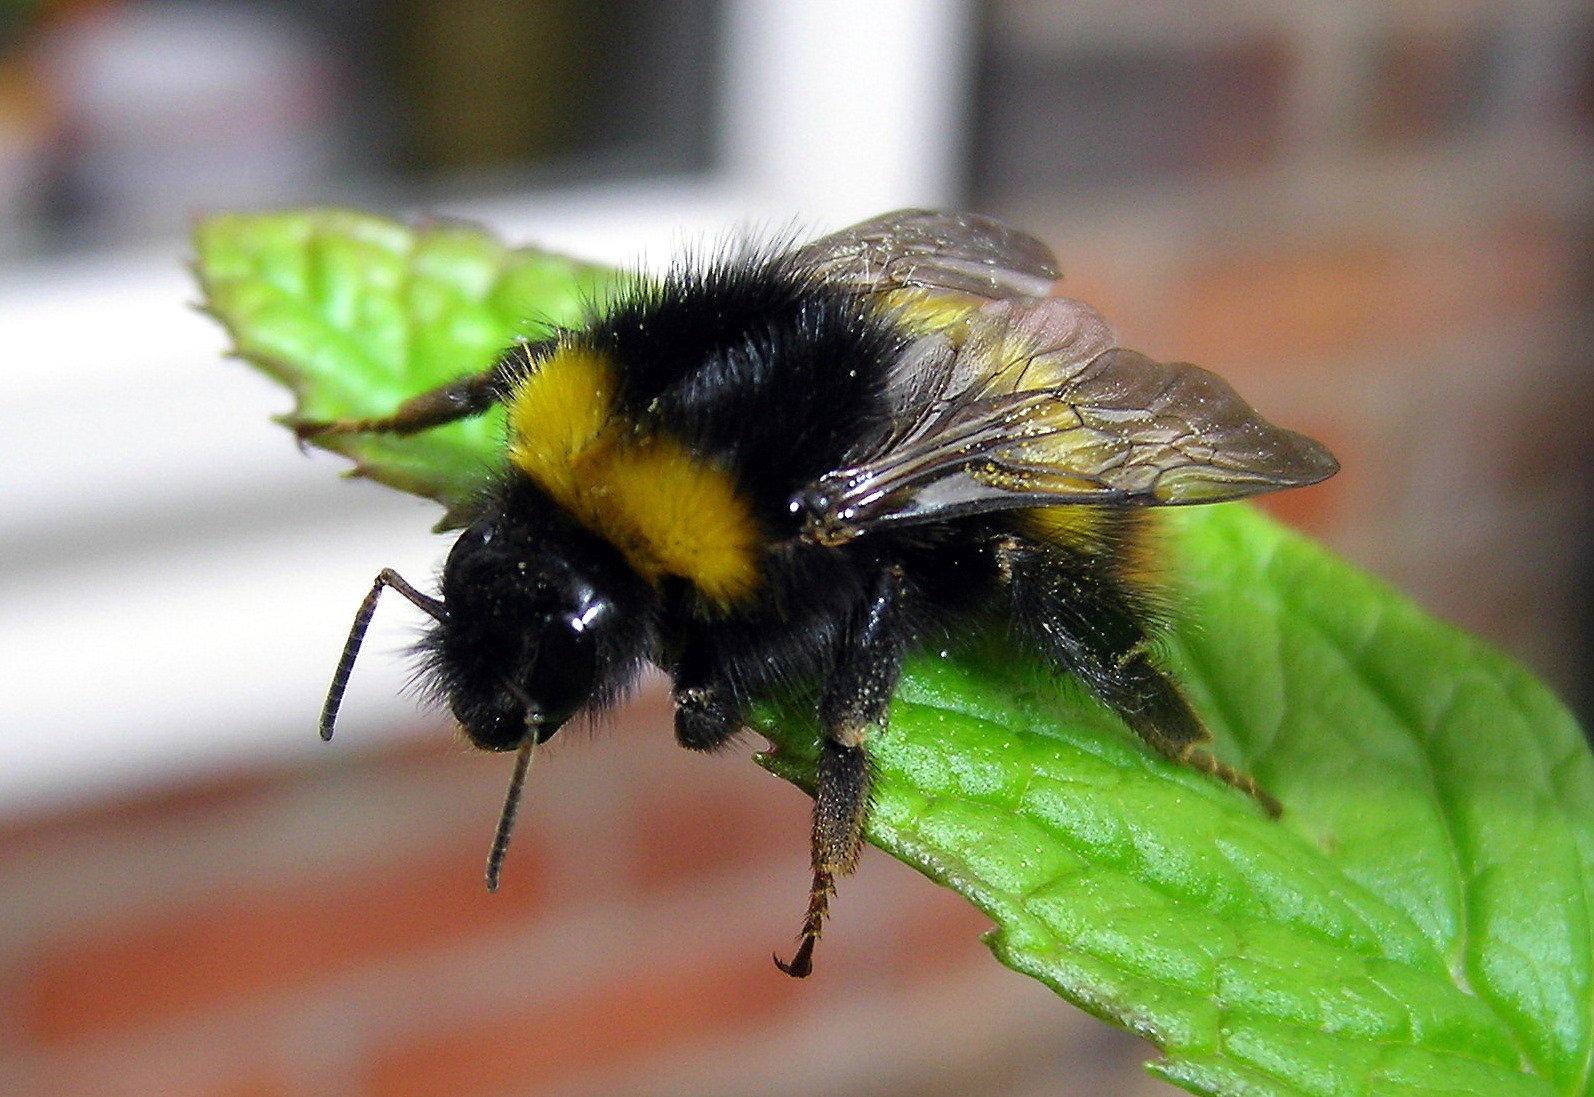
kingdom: Animalia
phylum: Arthropoda
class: Insecta
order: Hymenoptera
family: Apidae
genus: Bombus
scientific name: Bombus pratorum
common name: Early humble-bee
